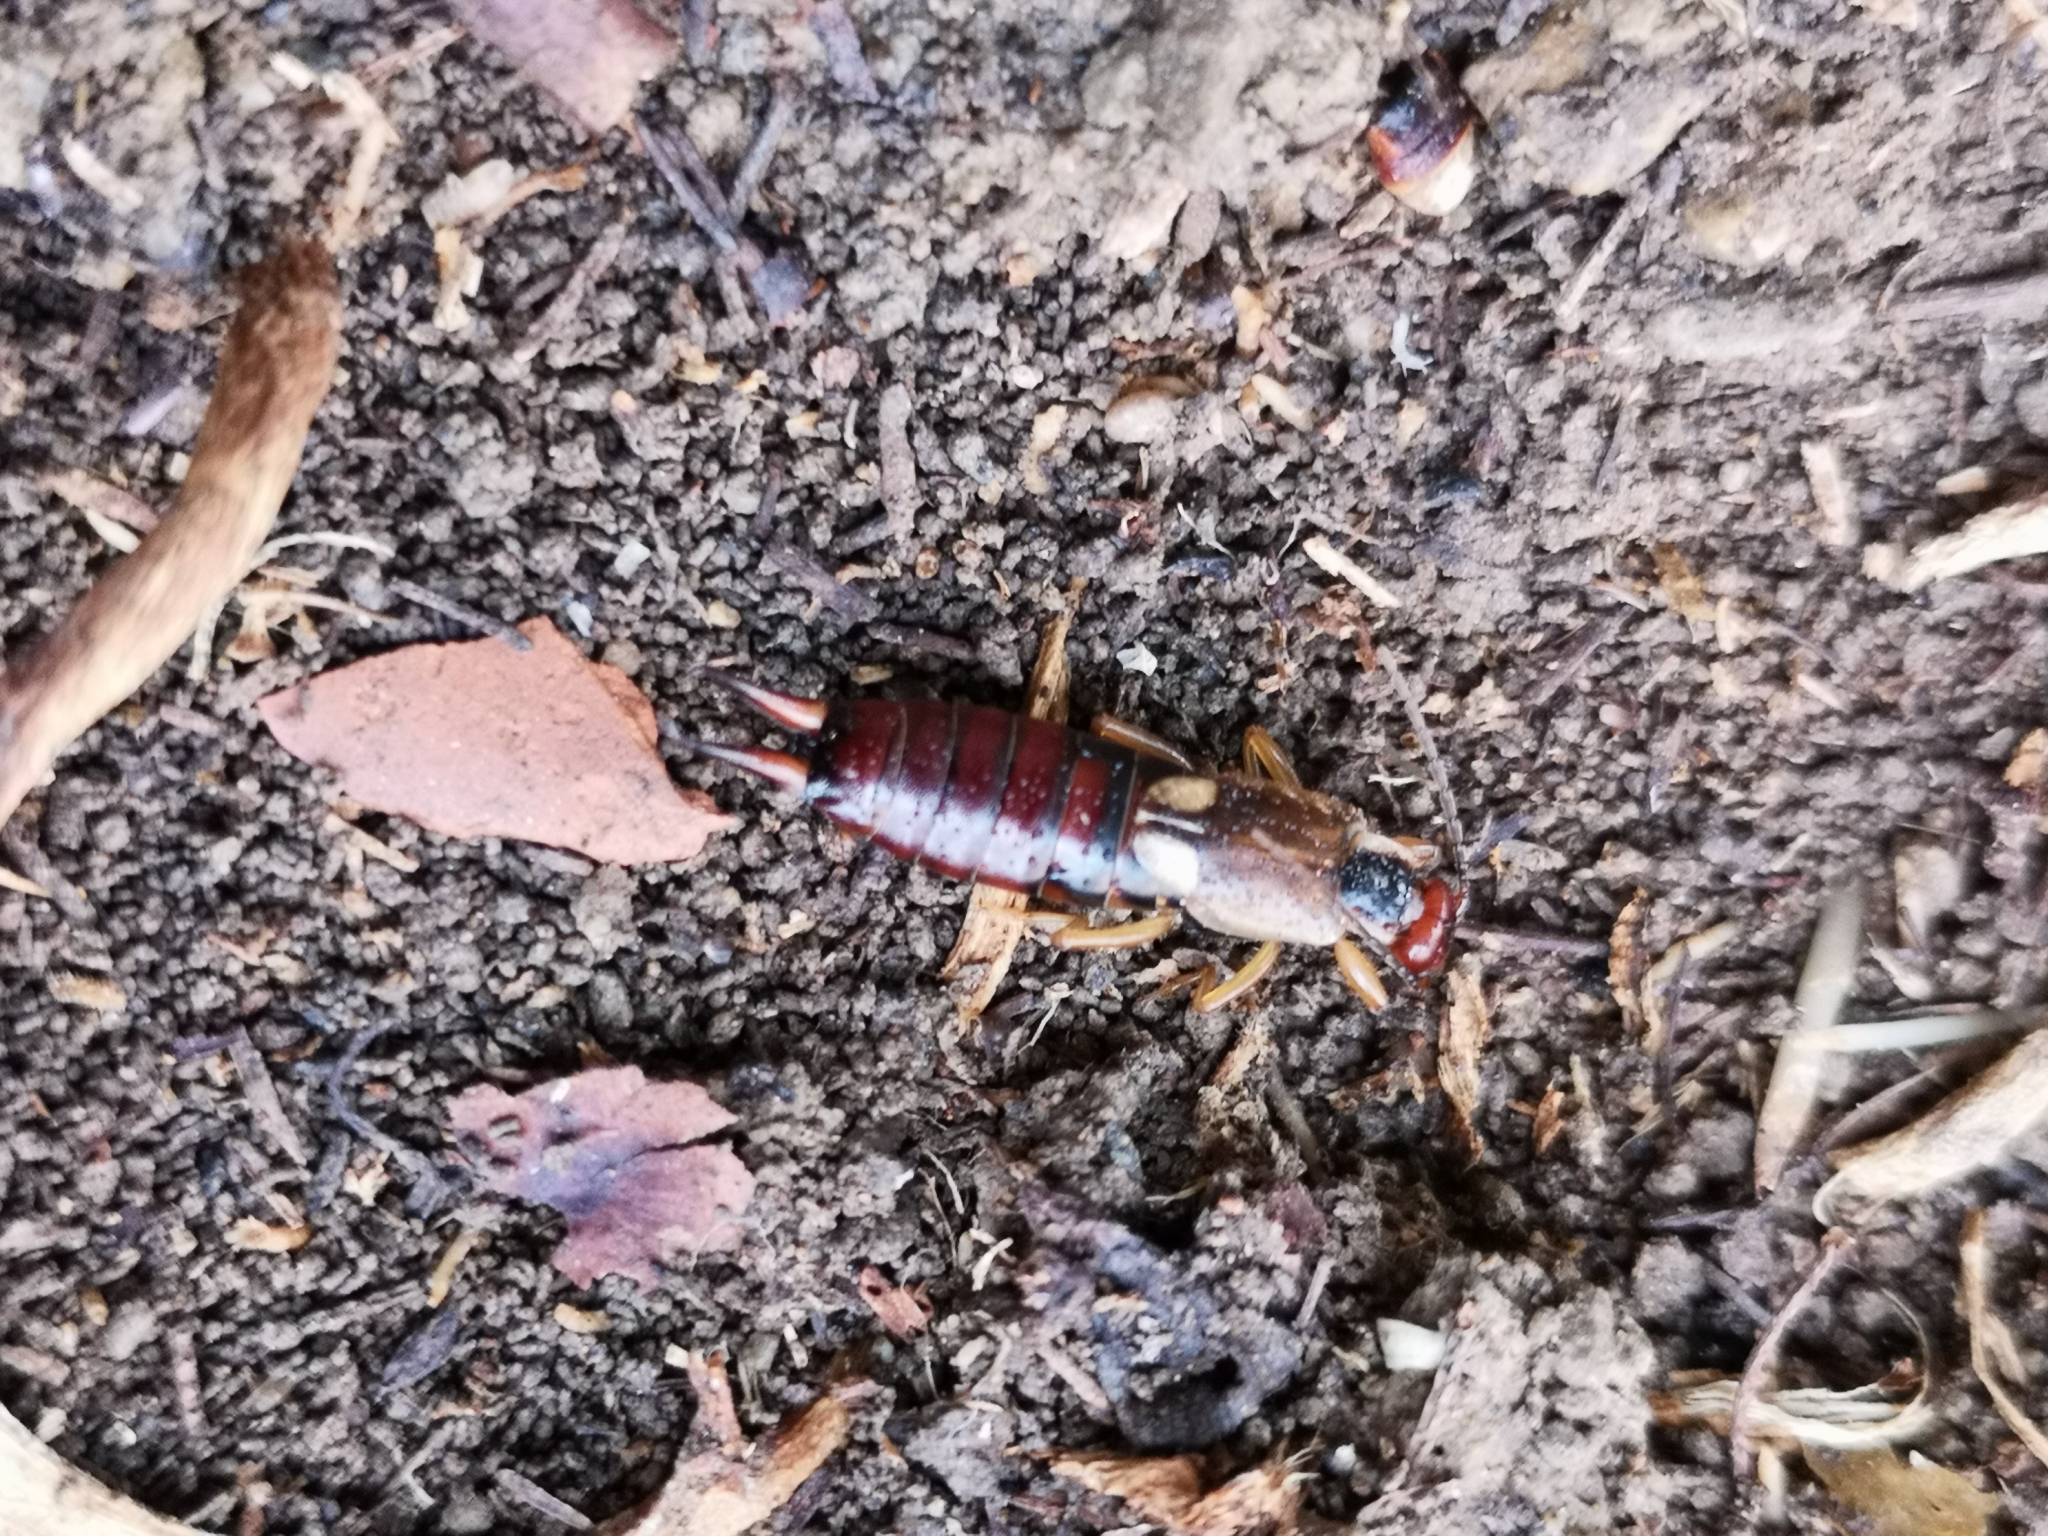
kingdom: Animalia
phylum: Arthropoda
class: Insecta
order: Dermaptera
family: Forficulidae
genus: Forficula
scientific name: Forficula
